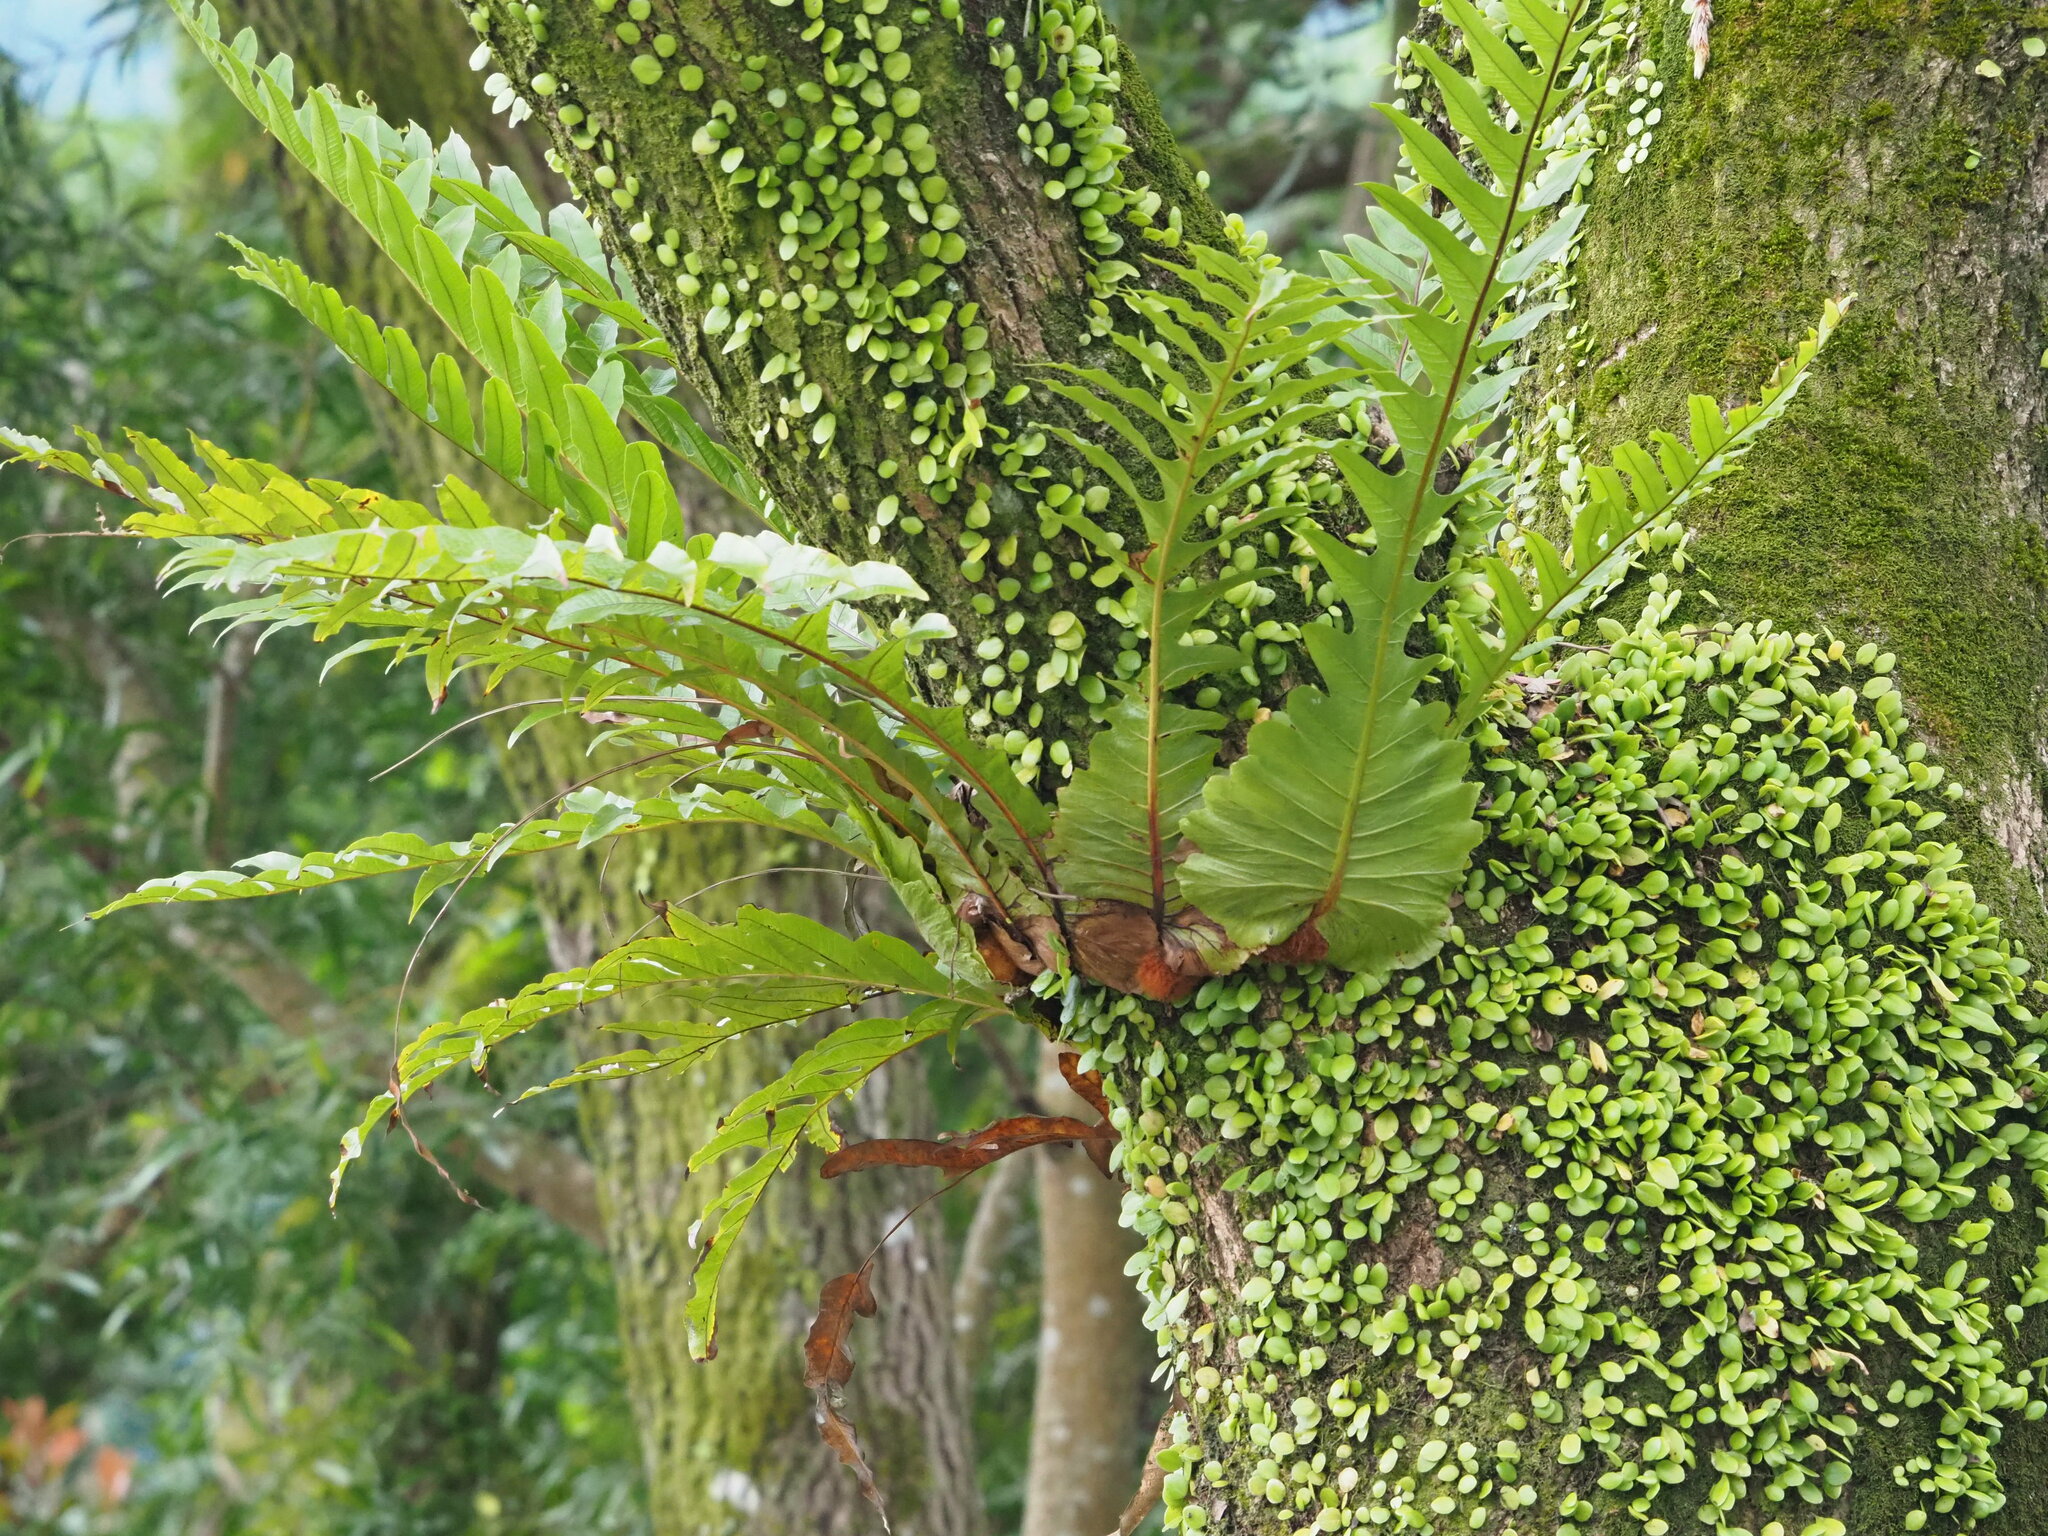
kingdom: Plantae
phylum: Tracheophyta
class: Polypodiopsida
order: Polypodiales
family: Polypodiaceae
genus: Drynaria
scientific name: Drynaria coronans
